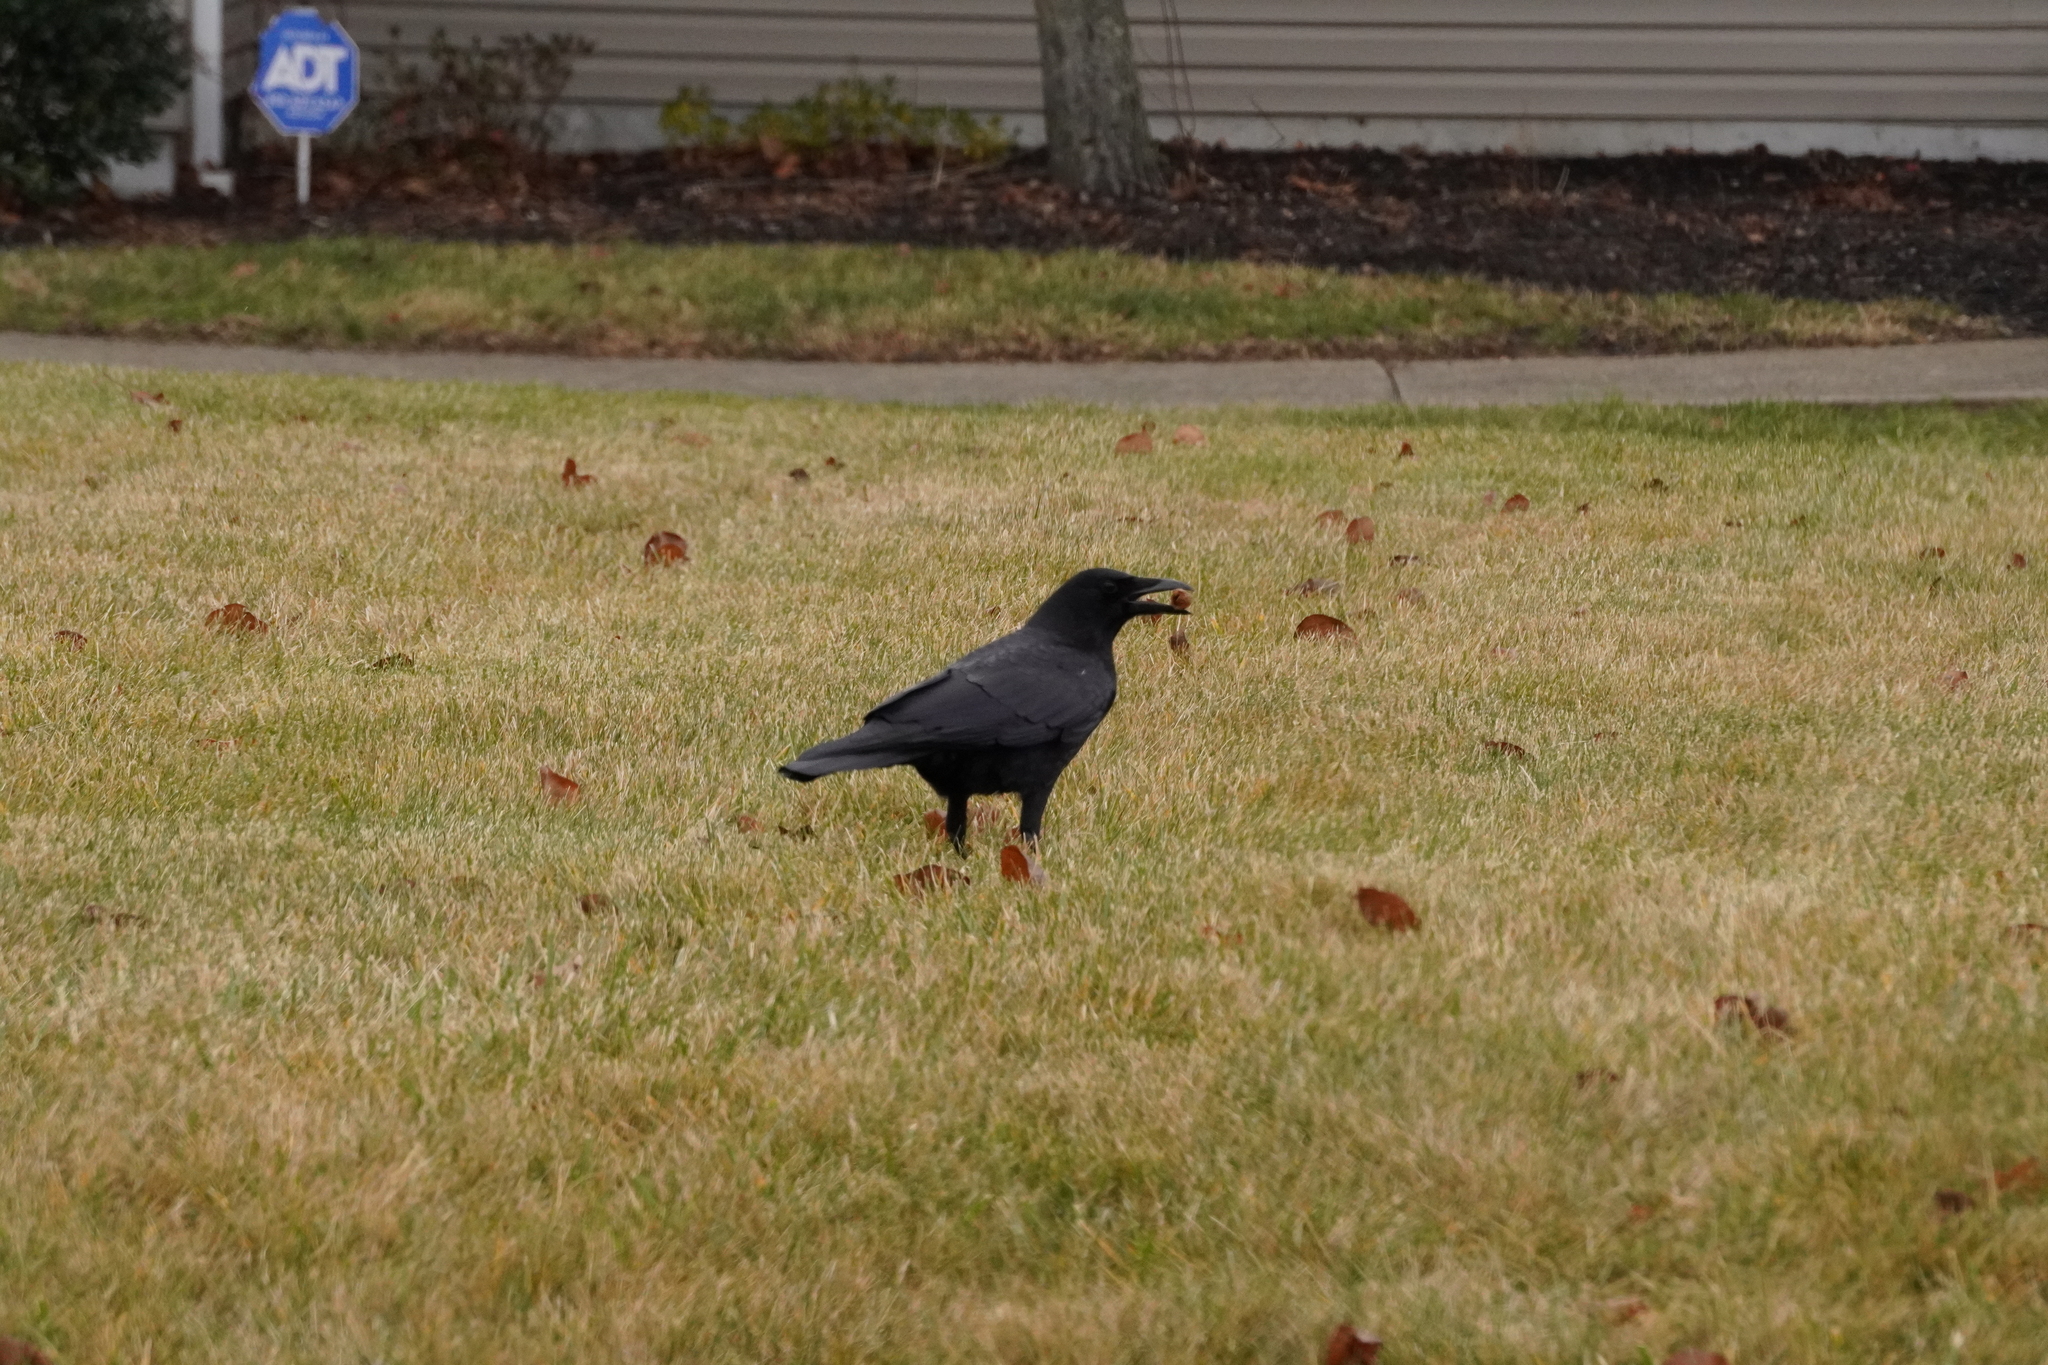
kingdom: Animalia
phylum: Chordata
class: Aves
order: Passeriformes
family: Corvidae
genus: Corvus
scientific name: Corvus brachyrhynchos
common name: American crow
